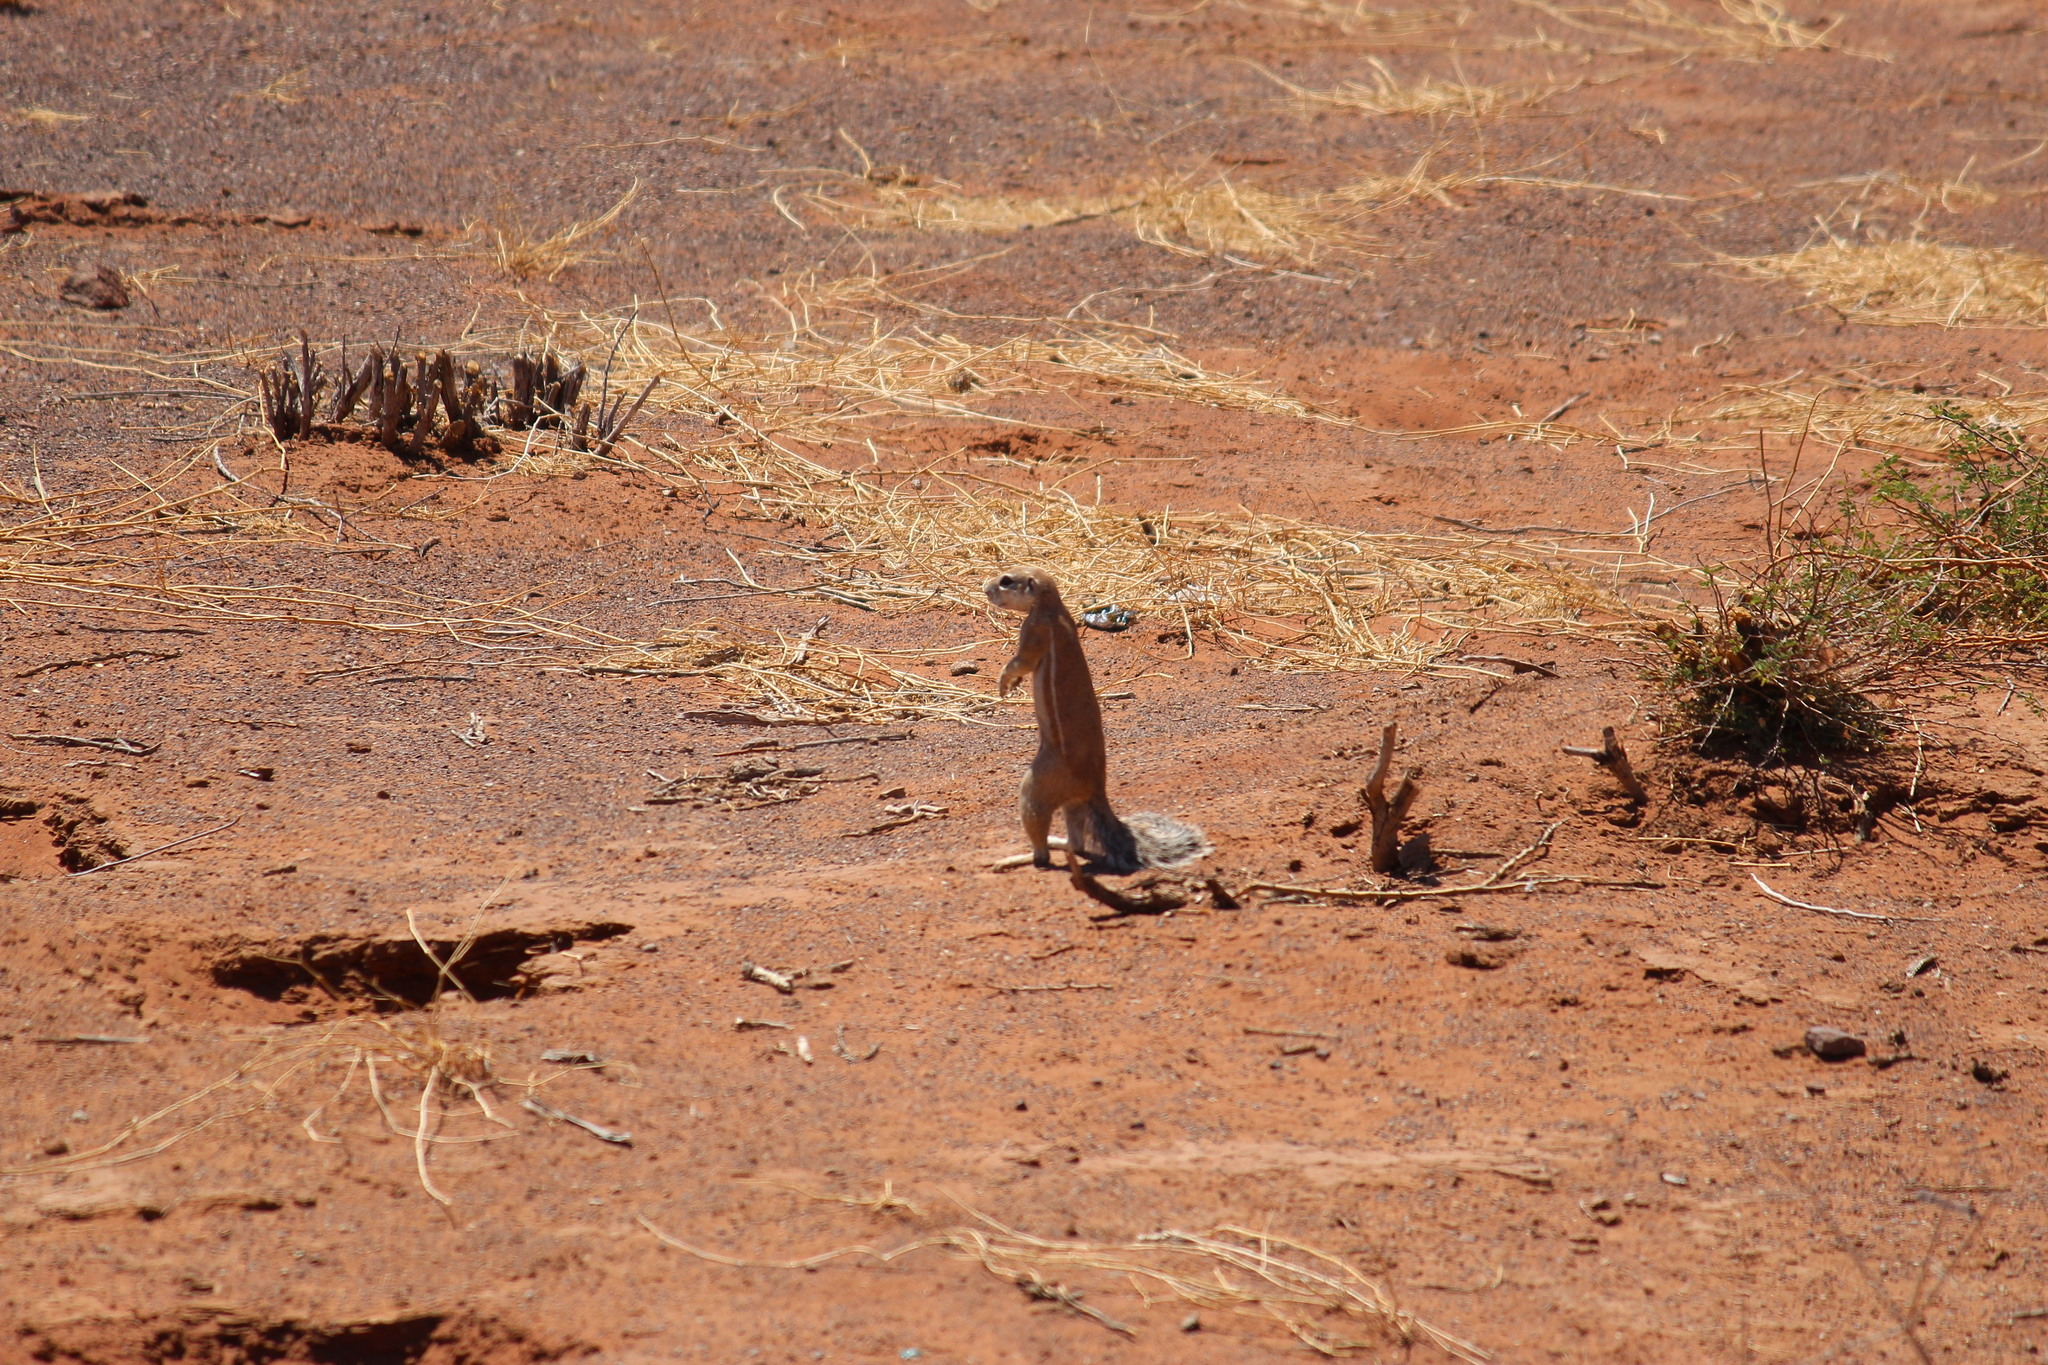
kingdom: Animalia
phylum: Chordata
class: Mammalia
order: Rodentia
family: Sciuridae
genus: Xerus
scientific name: Xerus inauris
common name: South african ground squirrel
